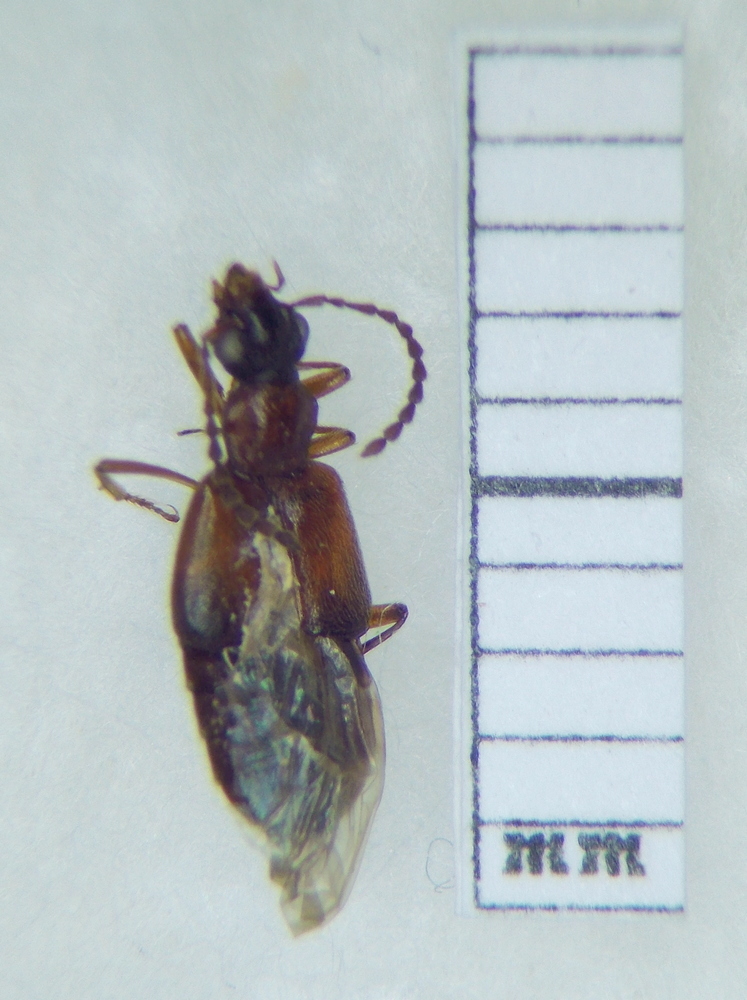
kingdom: Animalia
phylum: Arthropoda
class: Insecta
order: Coleoptera
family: Staphylinidae
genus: Deleaster
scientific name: Deleaster dichrous
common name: Rove beetle
